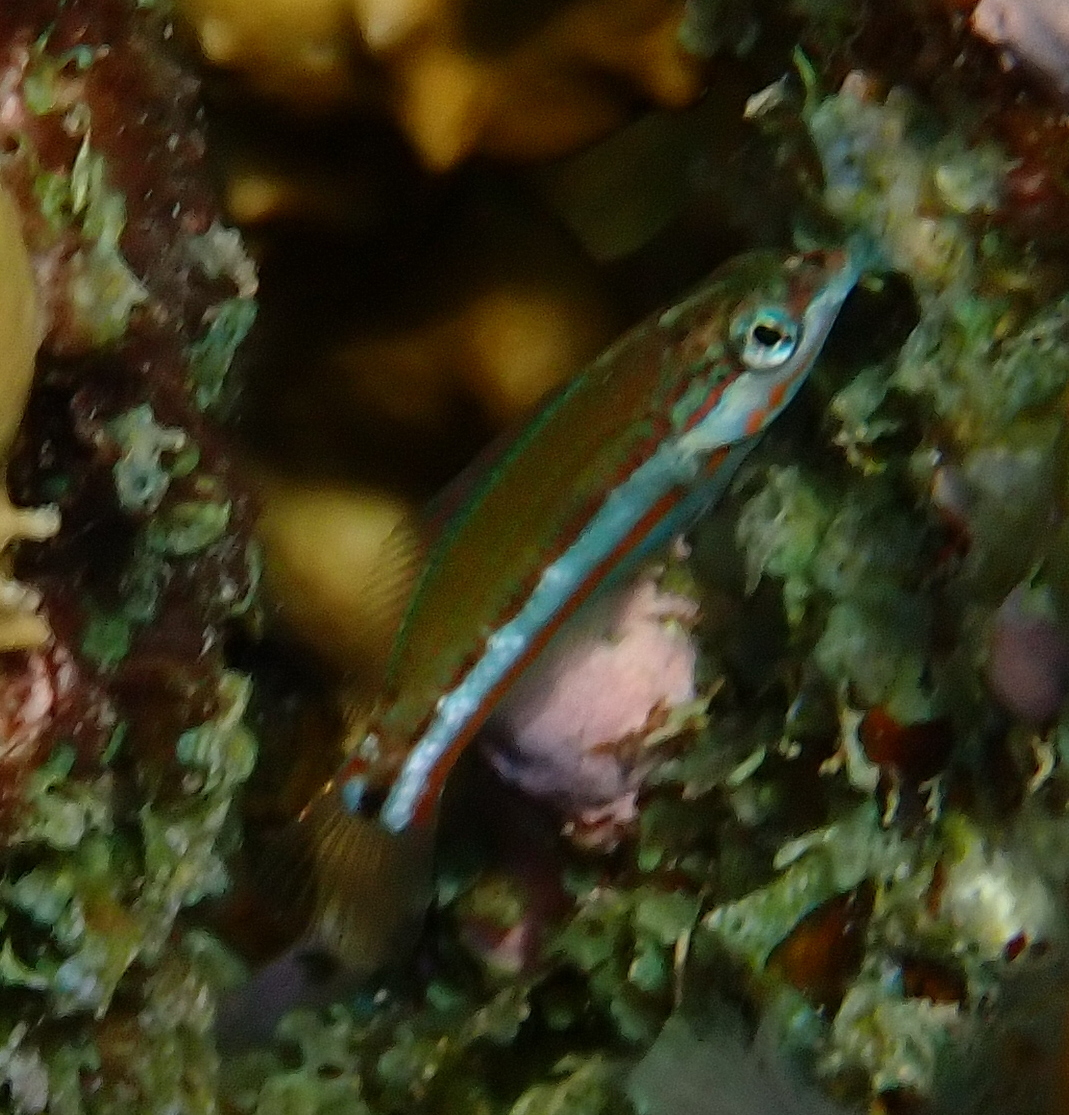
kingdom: Animalia
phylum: Chordata
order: Perciformes
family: Labridae
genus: Thalassoma
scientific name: Thalassoma rueppellii
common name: Klunzinger's wrasse
